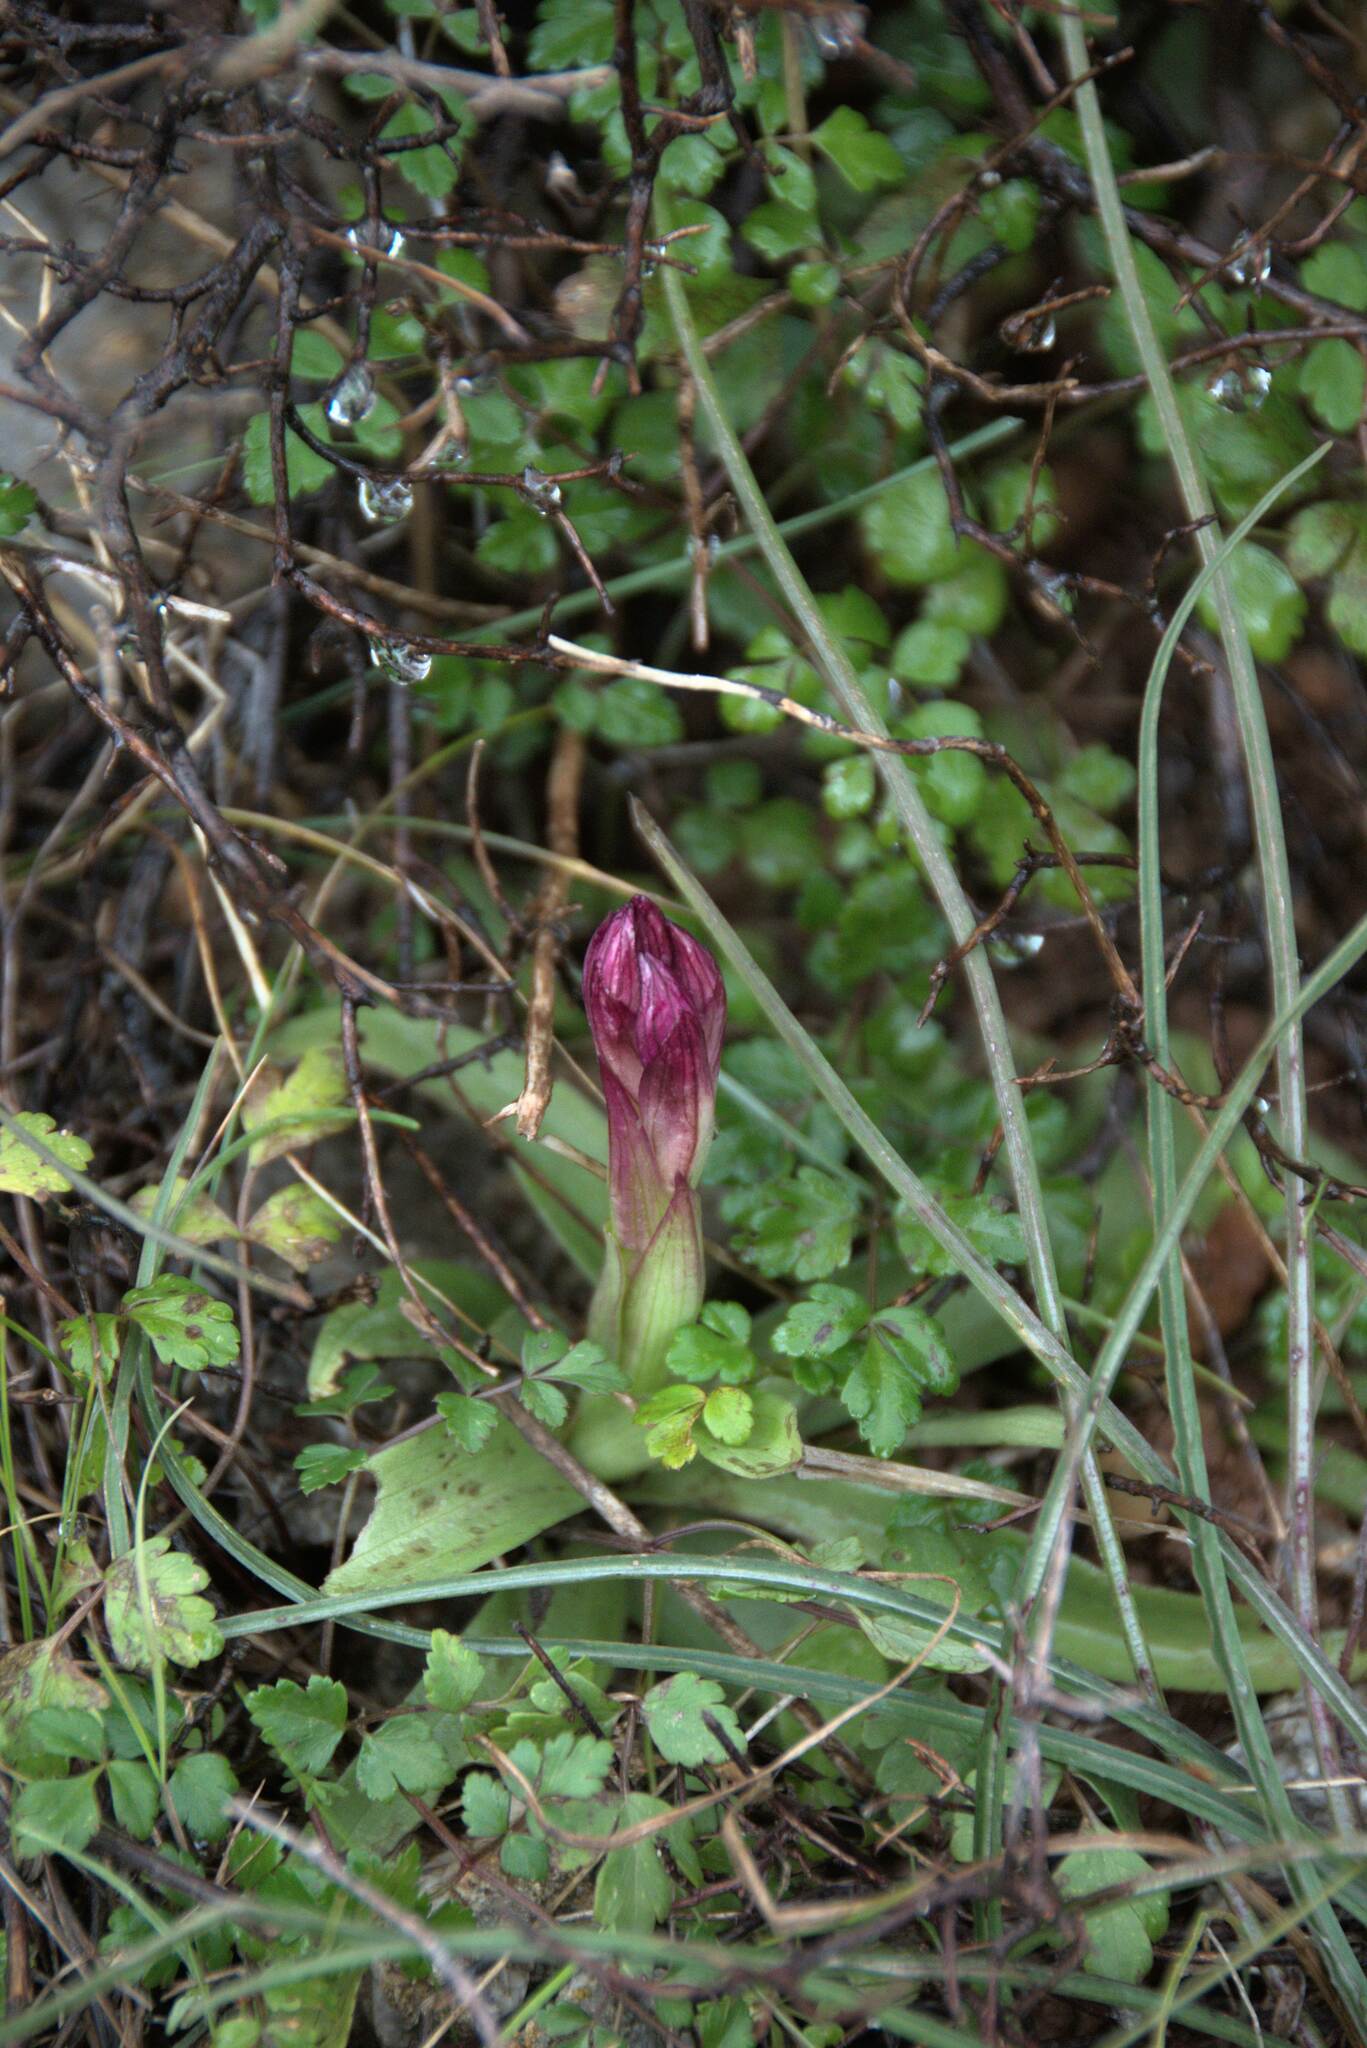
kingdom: Plantae
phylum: Tracheophyta
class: Liliopsida
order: Asparagales
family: Orchidaceae
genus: Anacamptis
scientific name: Anacamptis papilionacea
